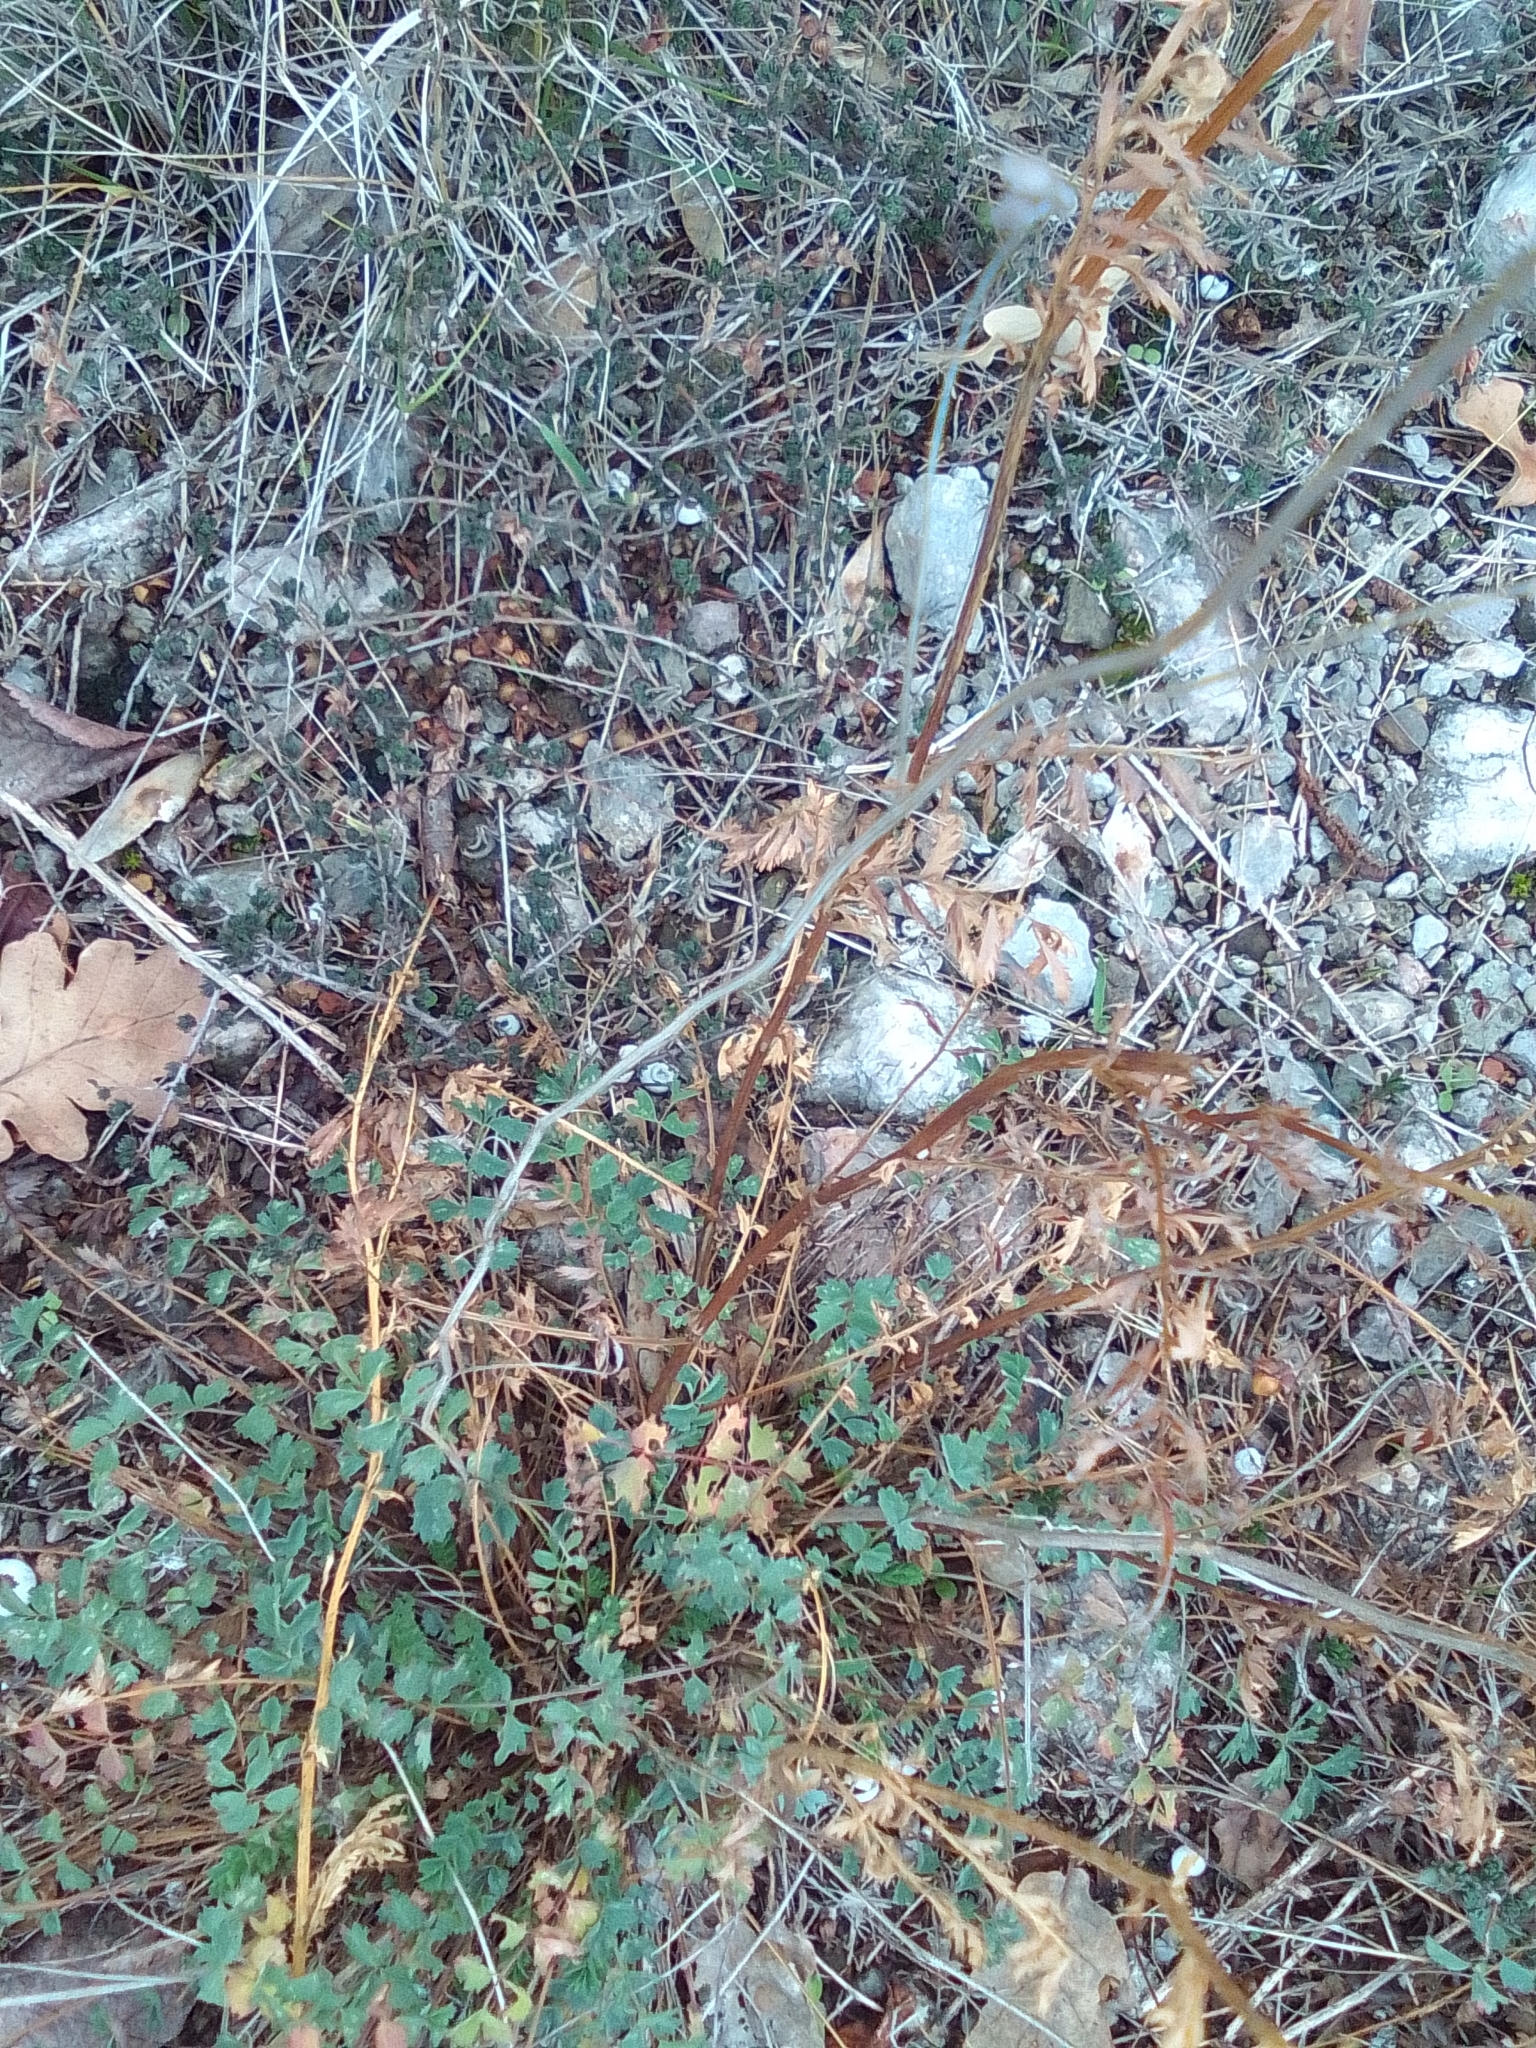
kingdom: Plantae
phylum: Tracheophyta
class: Magnoliopsida
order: Rosales
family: Rosaceae
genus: Poterium
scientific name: Poterium sanguisorba
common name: Salad burnet
